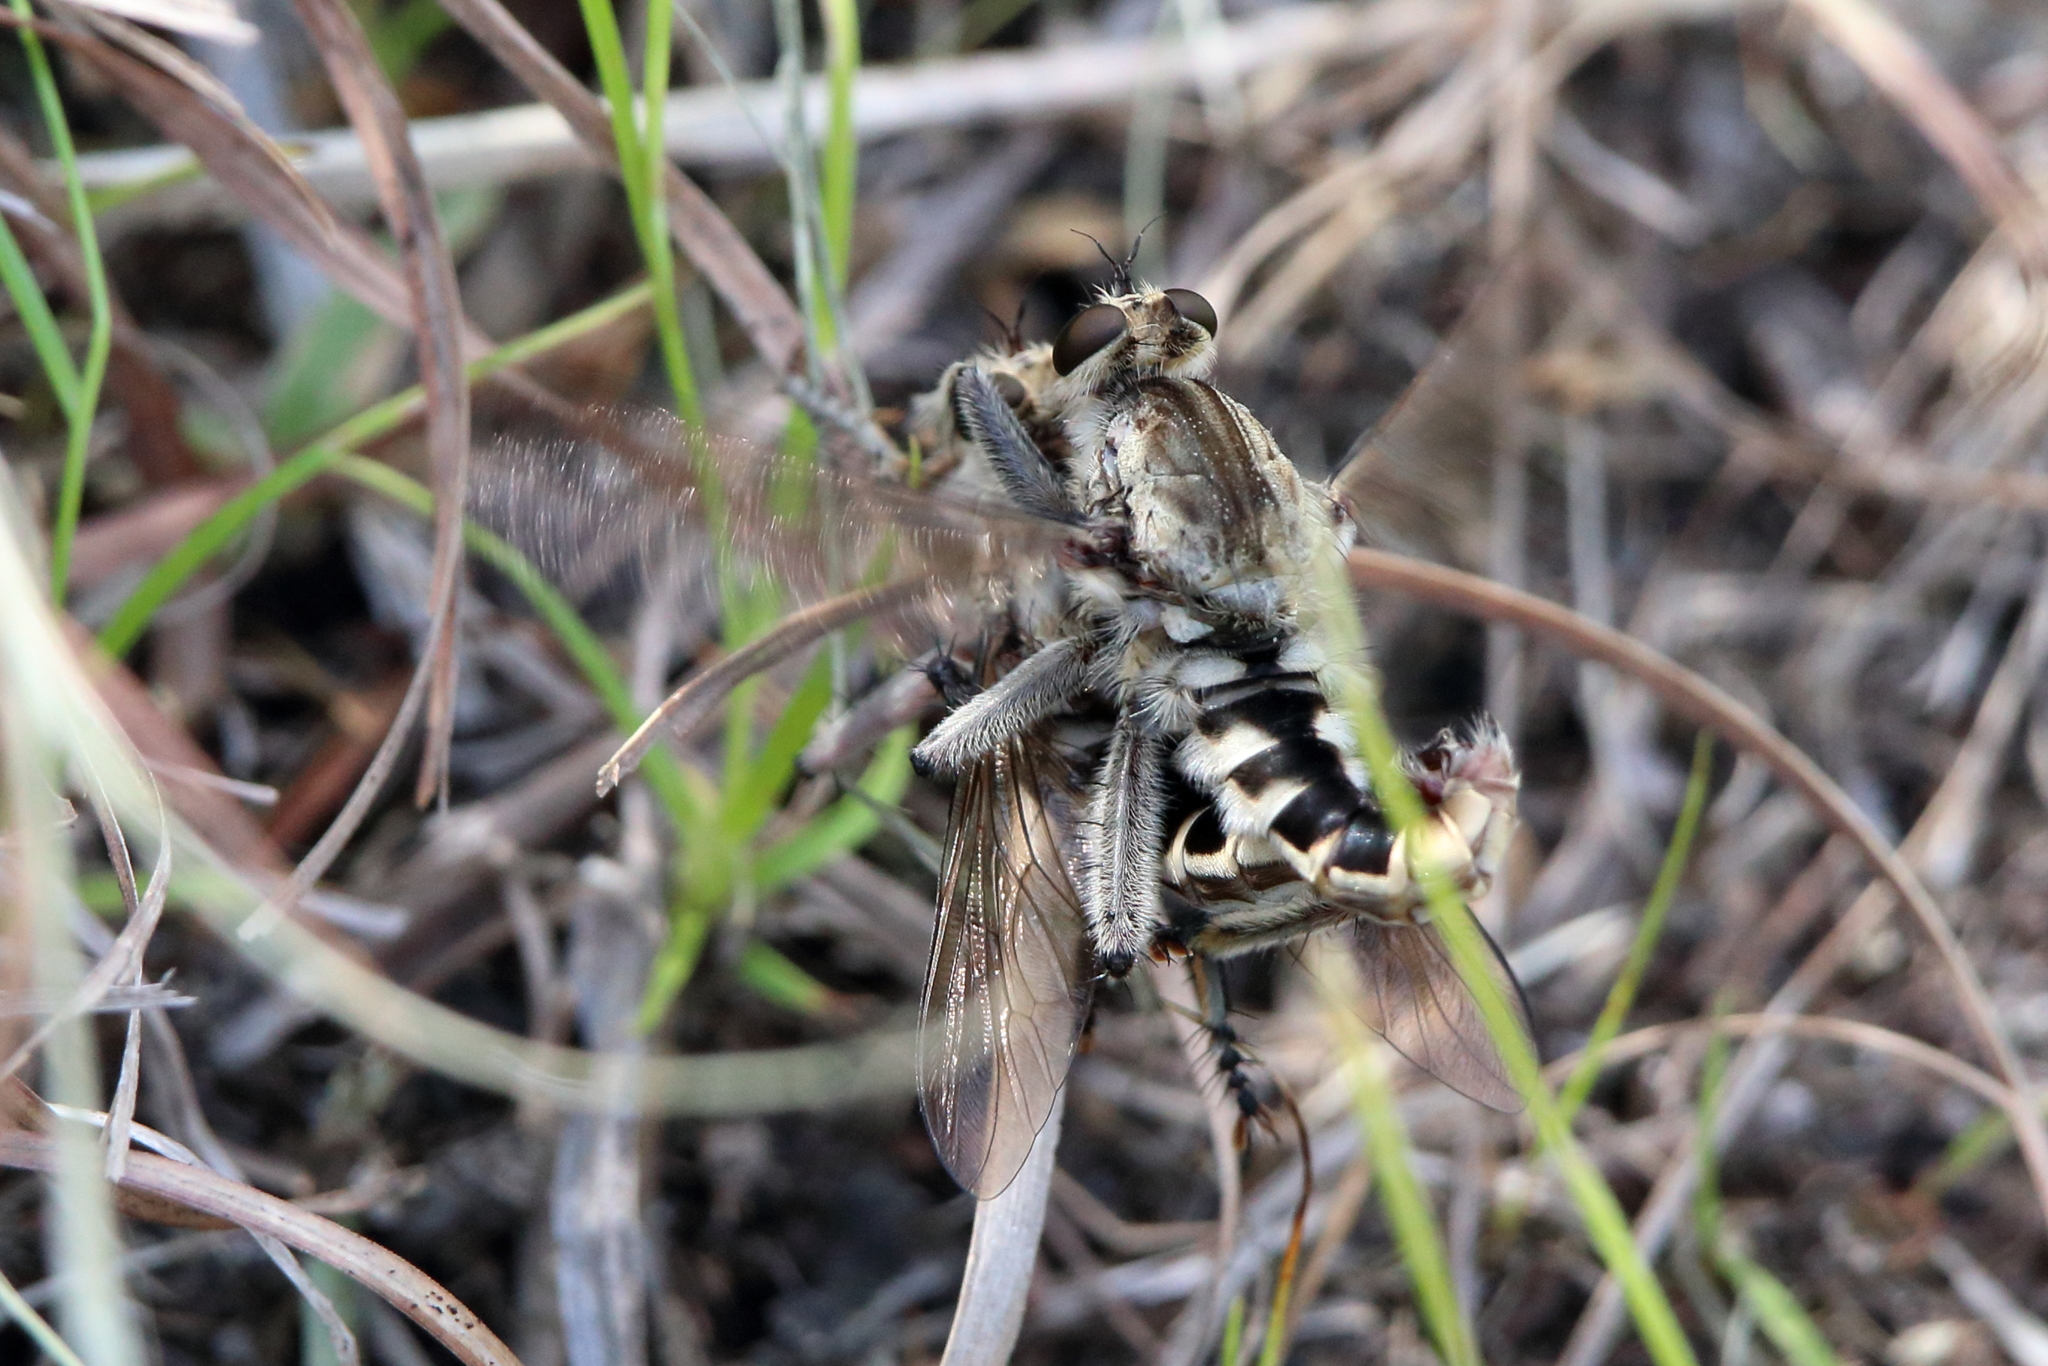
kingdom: Animalia
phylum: Arthropoda
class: Insecta
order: Diptera
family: Asilidae
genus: Triorla
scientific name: Triorla interrupta
